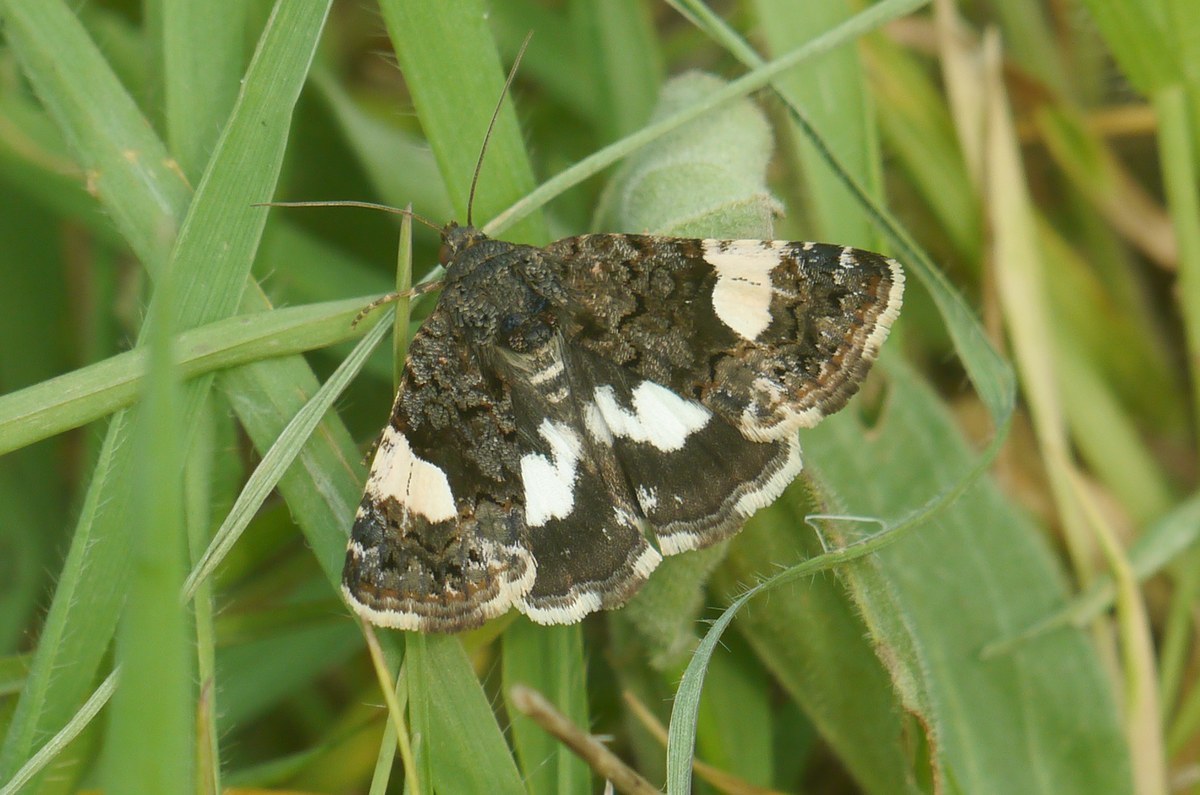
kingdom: Animalia
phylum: Arthropoda
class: Insecta
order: Lepidoptera
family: Erebidae
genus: Tyta
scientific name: Tyta luctuosa
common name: Four-spotted
